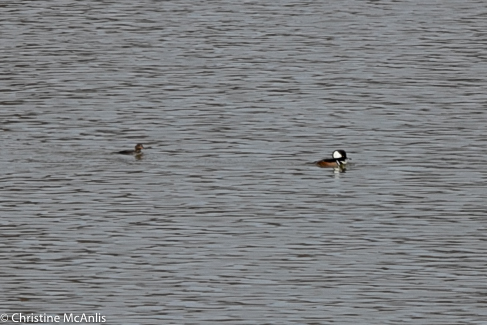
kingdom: Animalia
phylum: Chordata
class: Aves
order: Anseriformes
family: Anatidae
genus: Lophodytes
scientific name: Lophodytes cucullatus
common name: Hooded merganser
